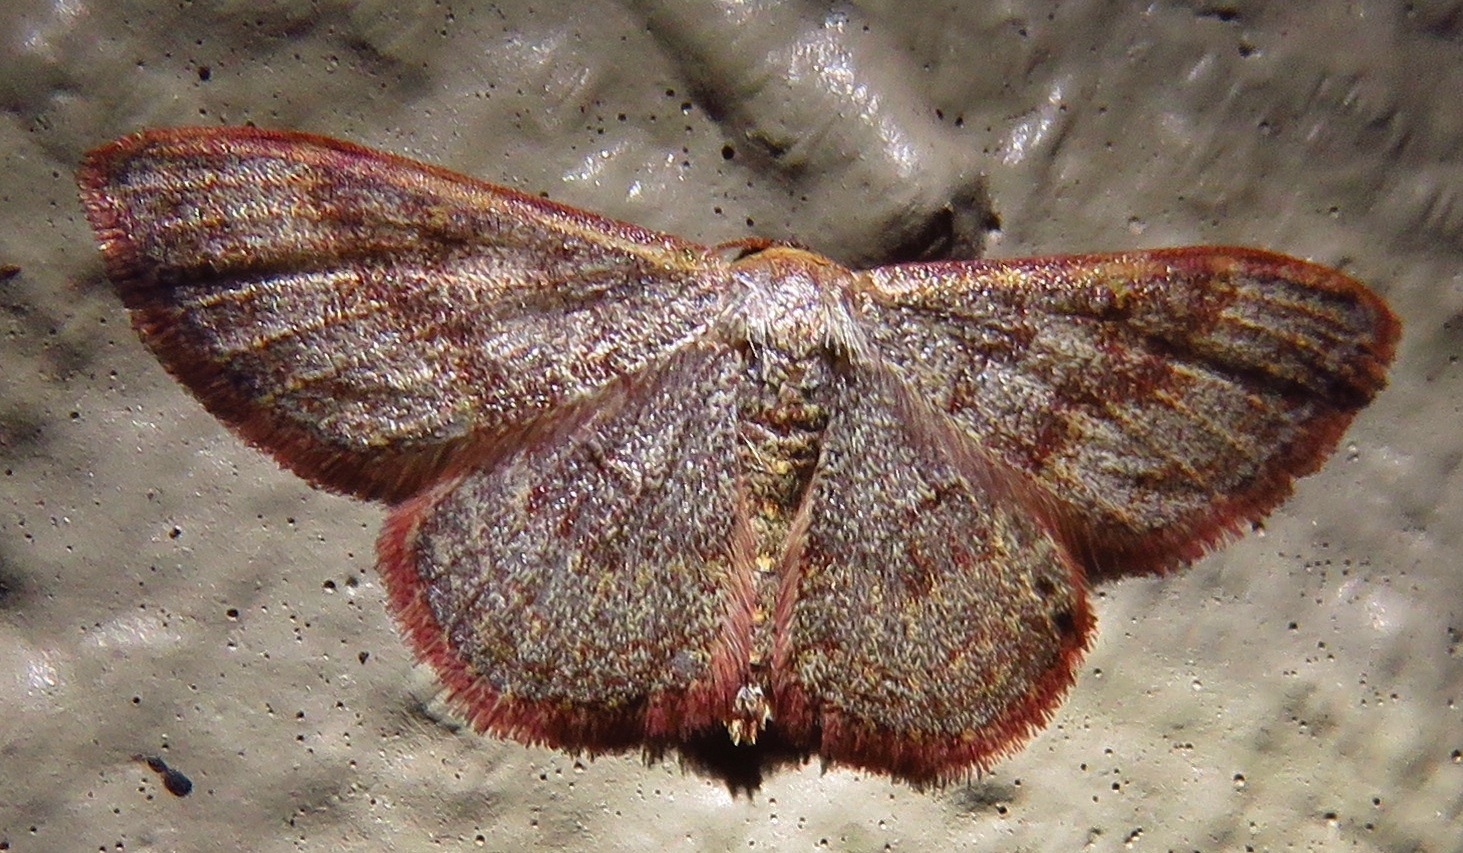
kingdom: Animalia
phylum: Arthropoda
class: Insecta
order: Lepidoptera
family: Geometridae
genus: Leptostales
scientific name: Leptostales pannaria
